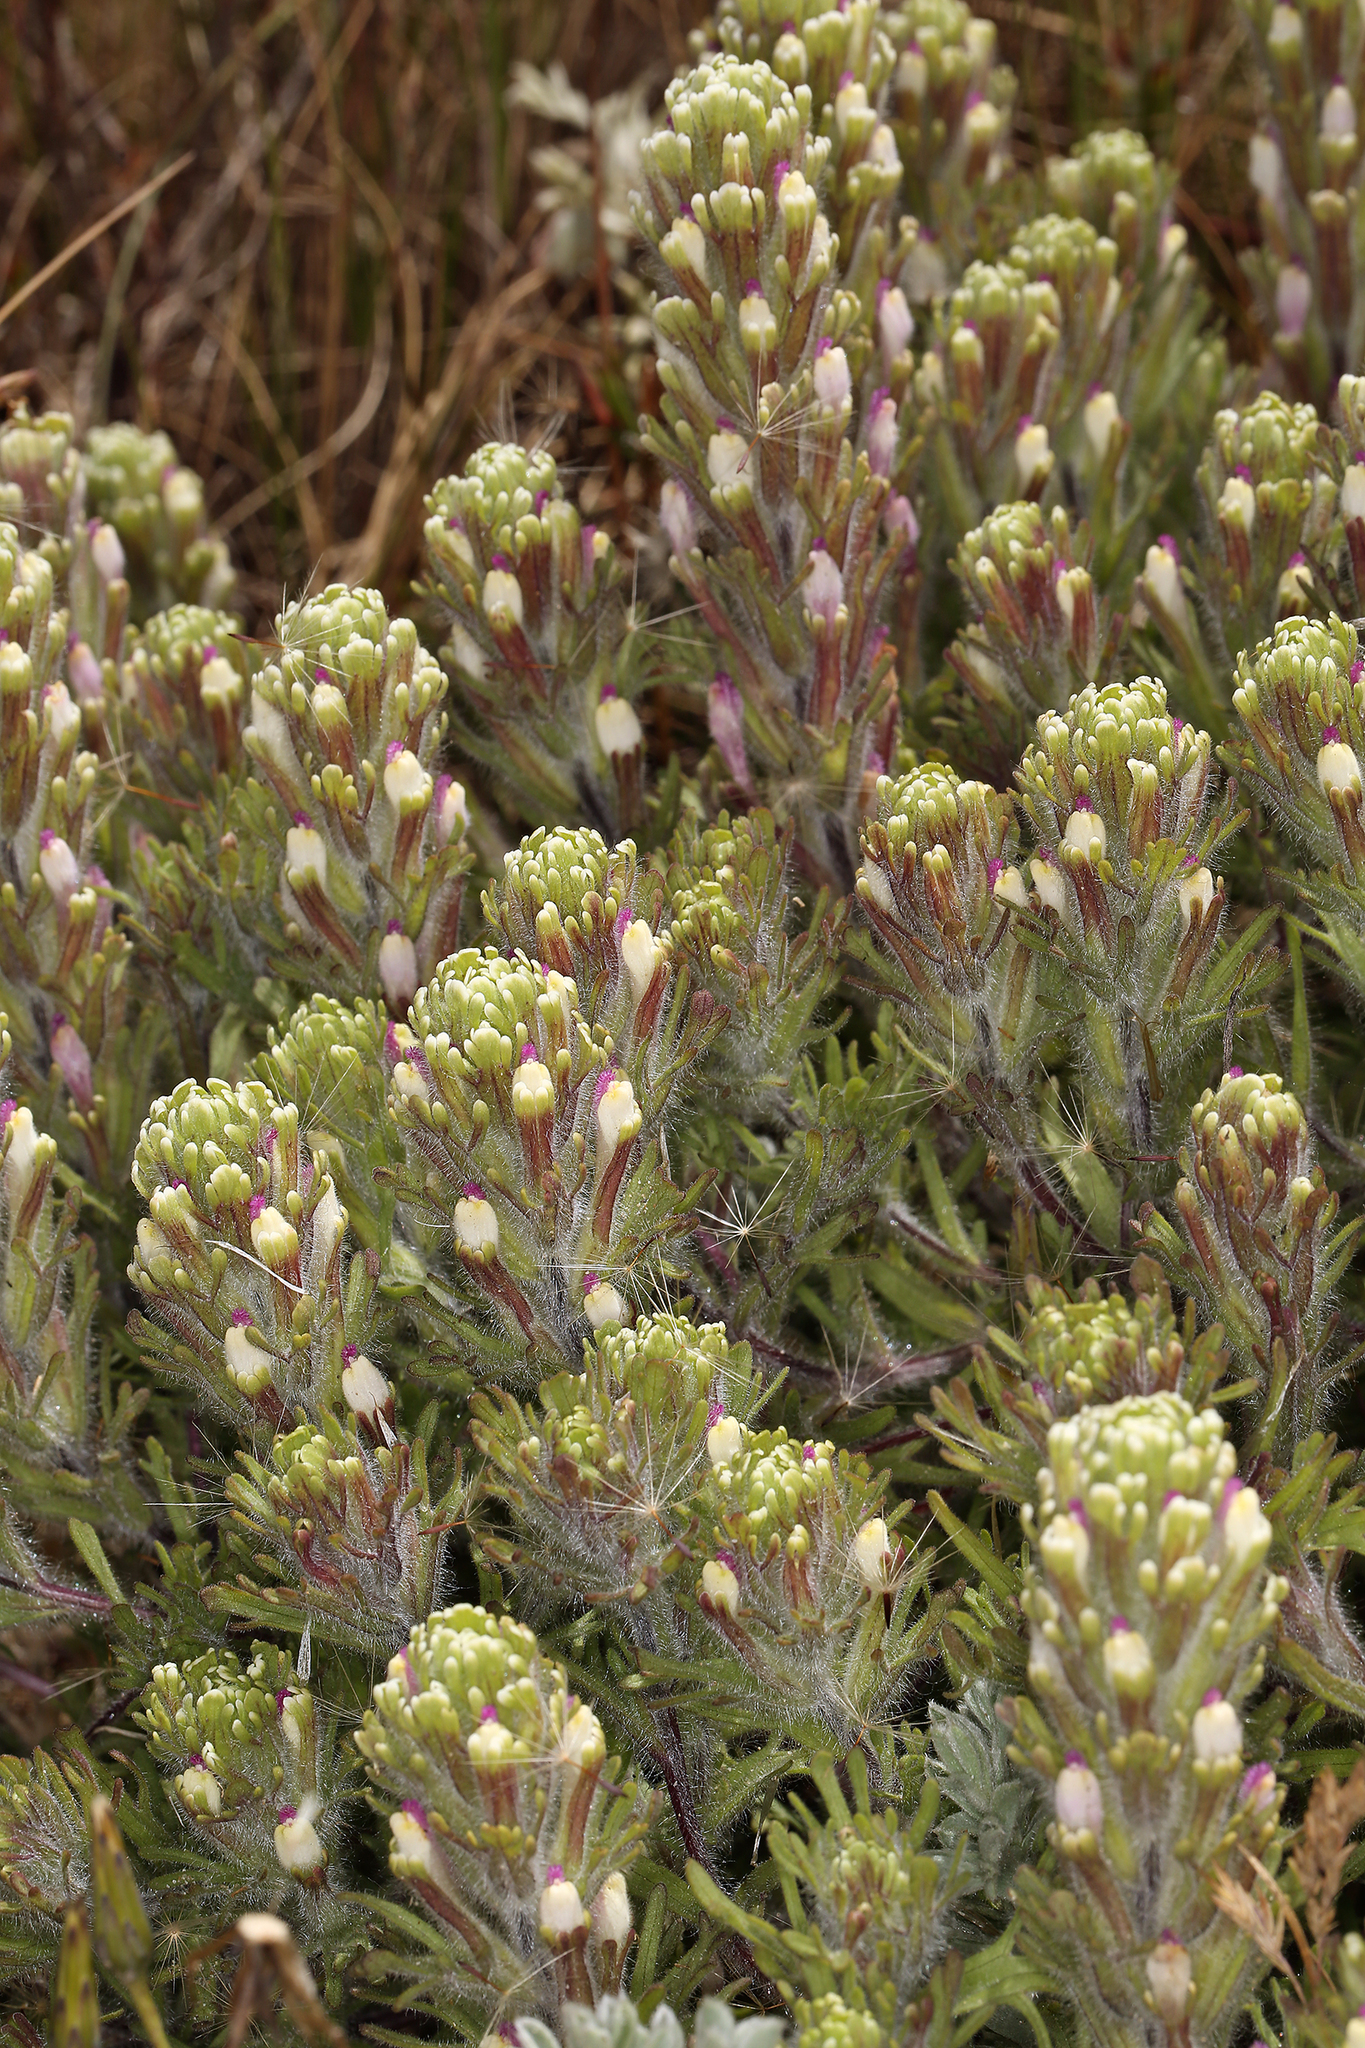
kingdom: Plantae
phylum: Tracheophyta
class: Magnoliopsida
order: Lamiales
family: Orobanchaceae
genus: Castilleja
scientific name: Castilleja exserta
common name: Purple owl-clover
